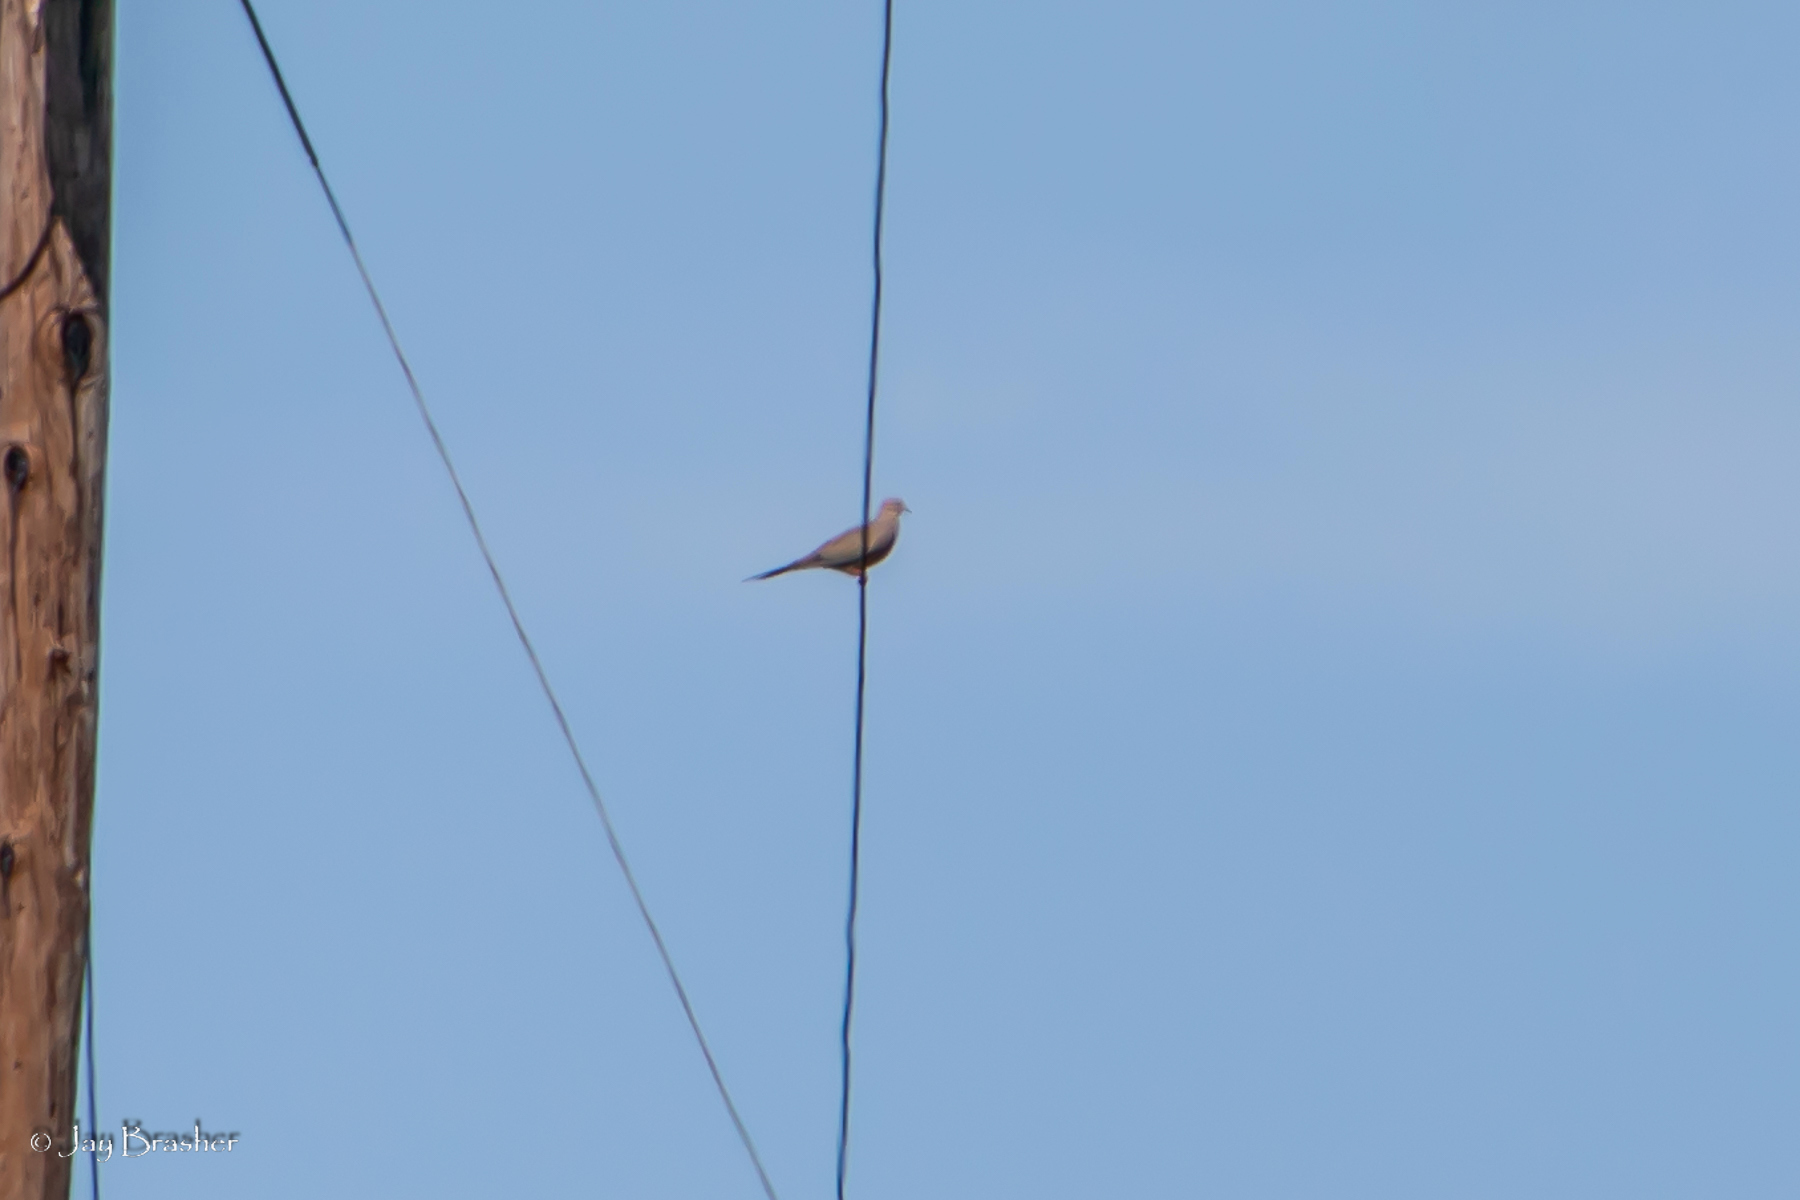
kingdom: Animalia
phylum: Chordata
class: Aves
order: Columbiformes
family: Columbidae
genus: Zenaida
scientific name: Zenaida macroura
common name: Mourning dove
